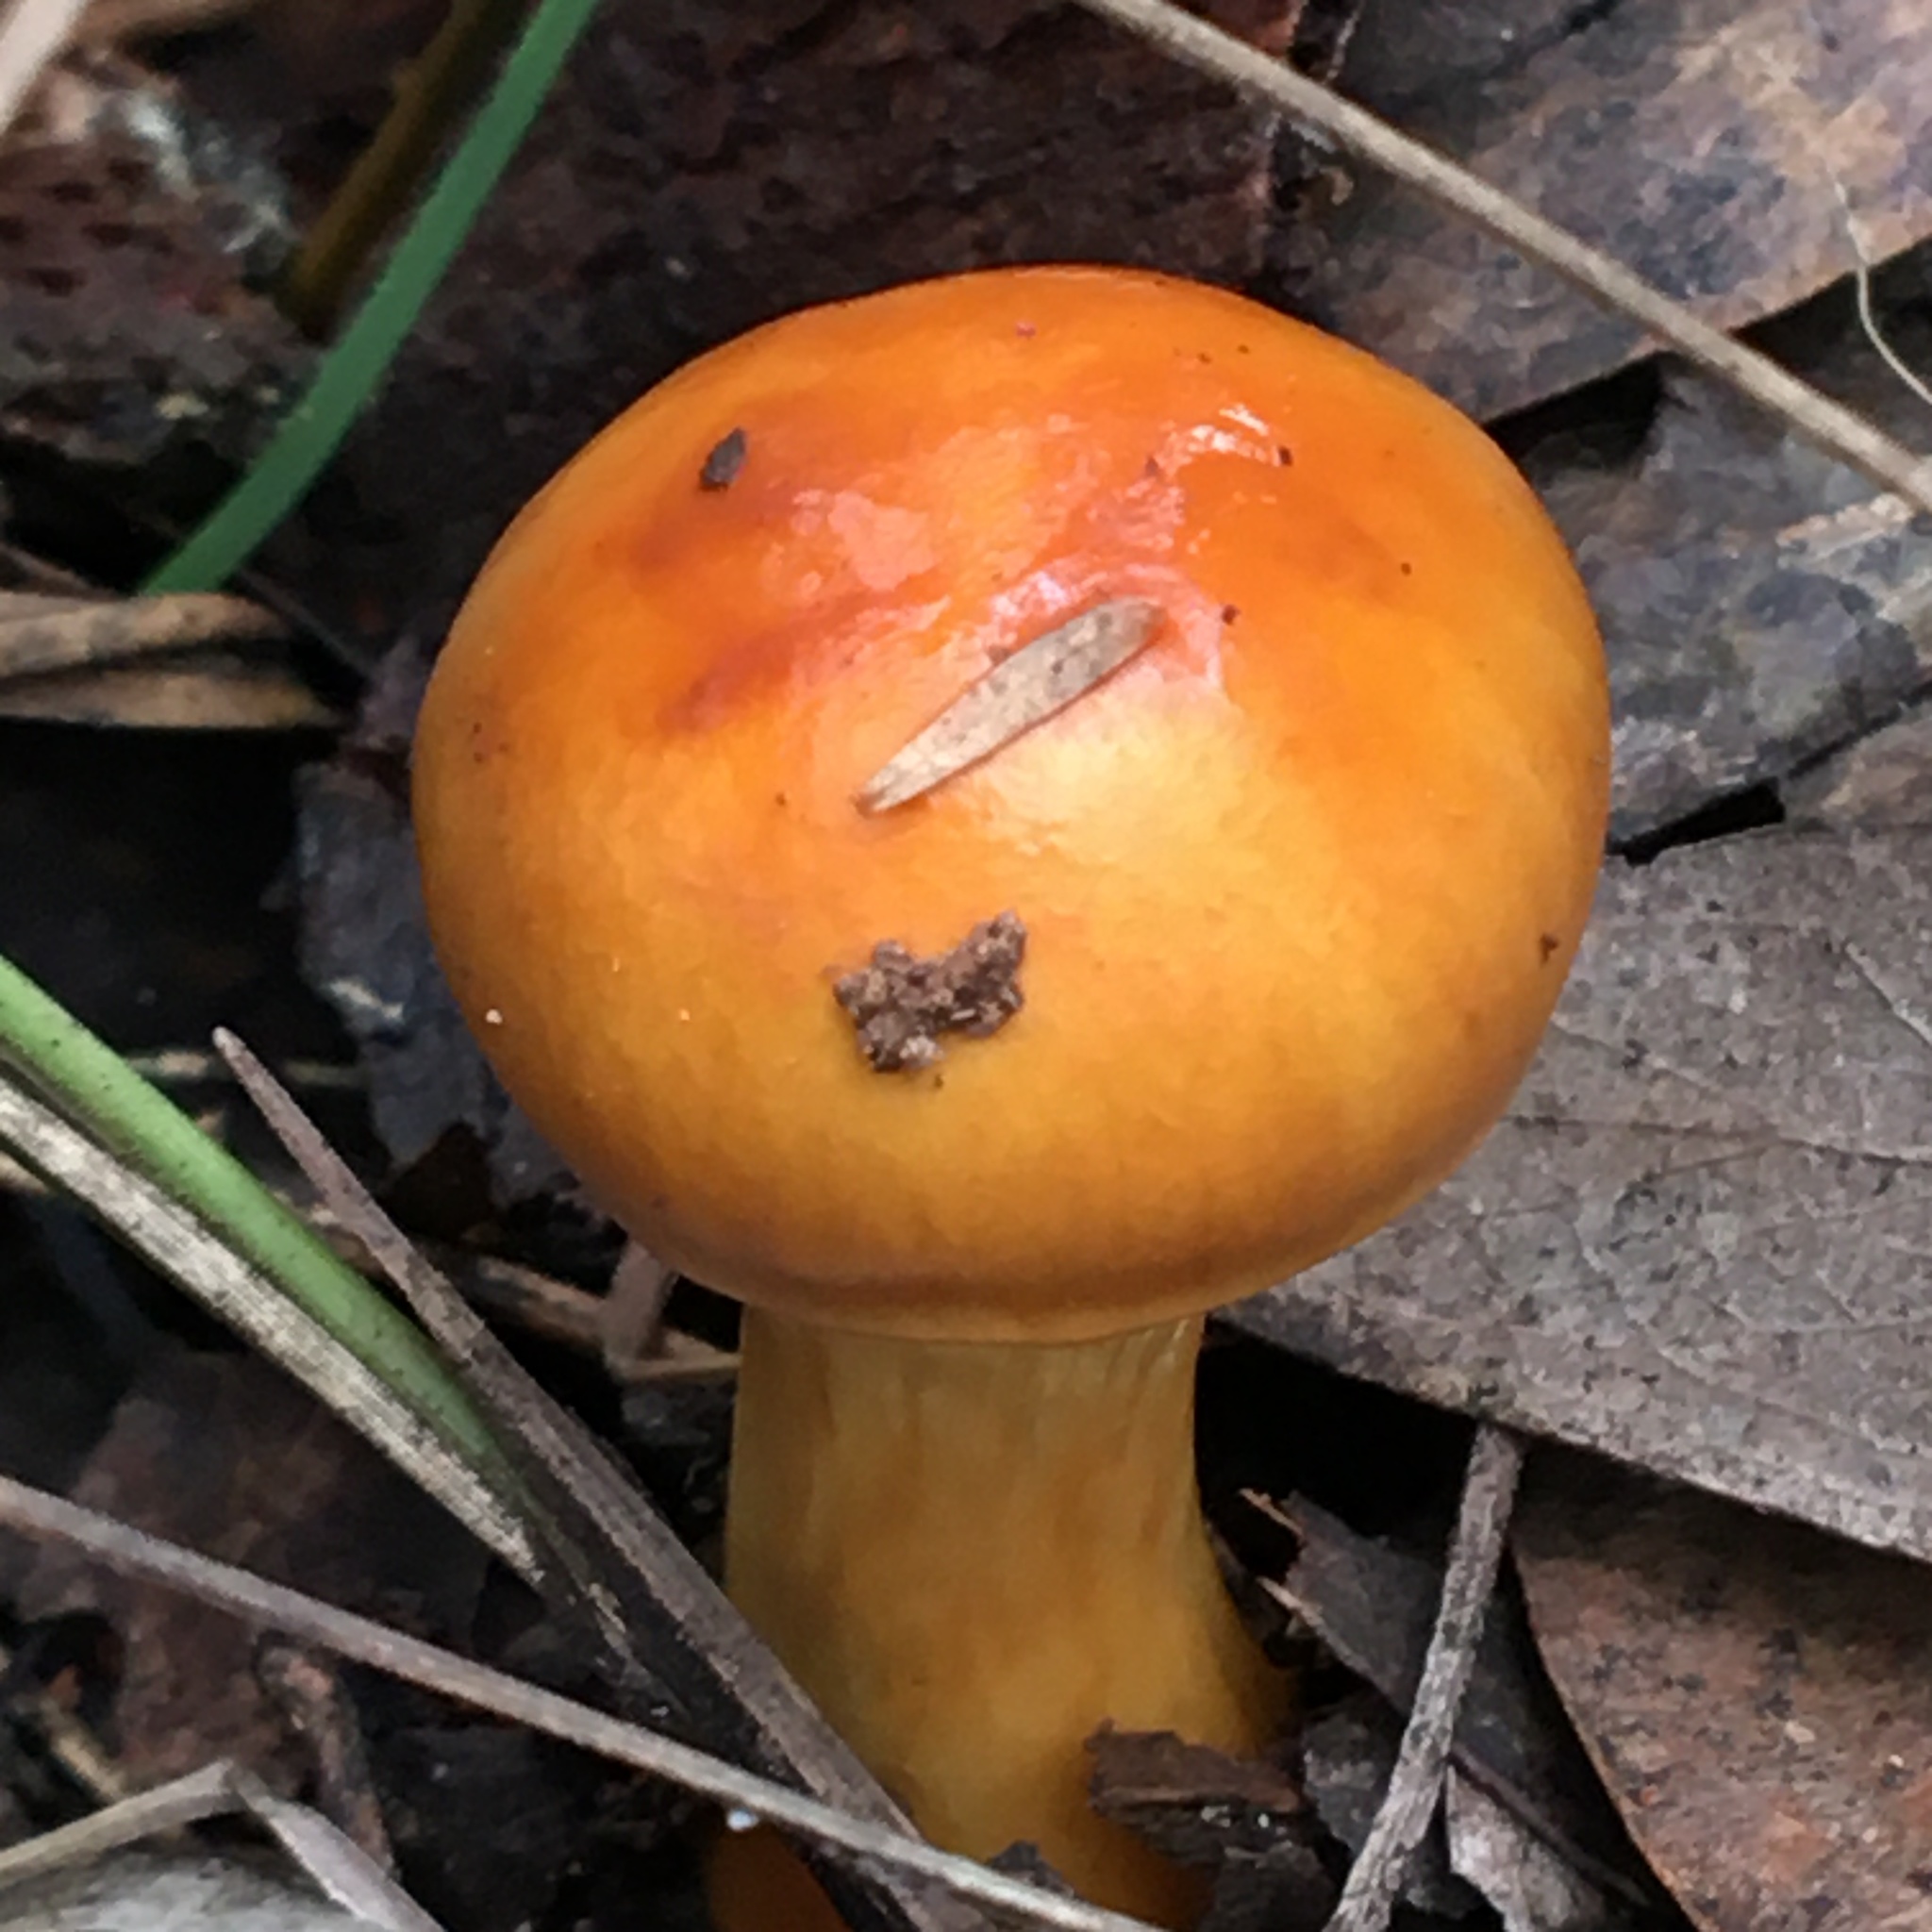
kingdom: Fungi
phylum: Basidiomycota
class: Agaricomycetes
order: Agaricales
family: Cortinariaceae
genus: Cortinarius
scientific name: Cortinarius sinapicolor
